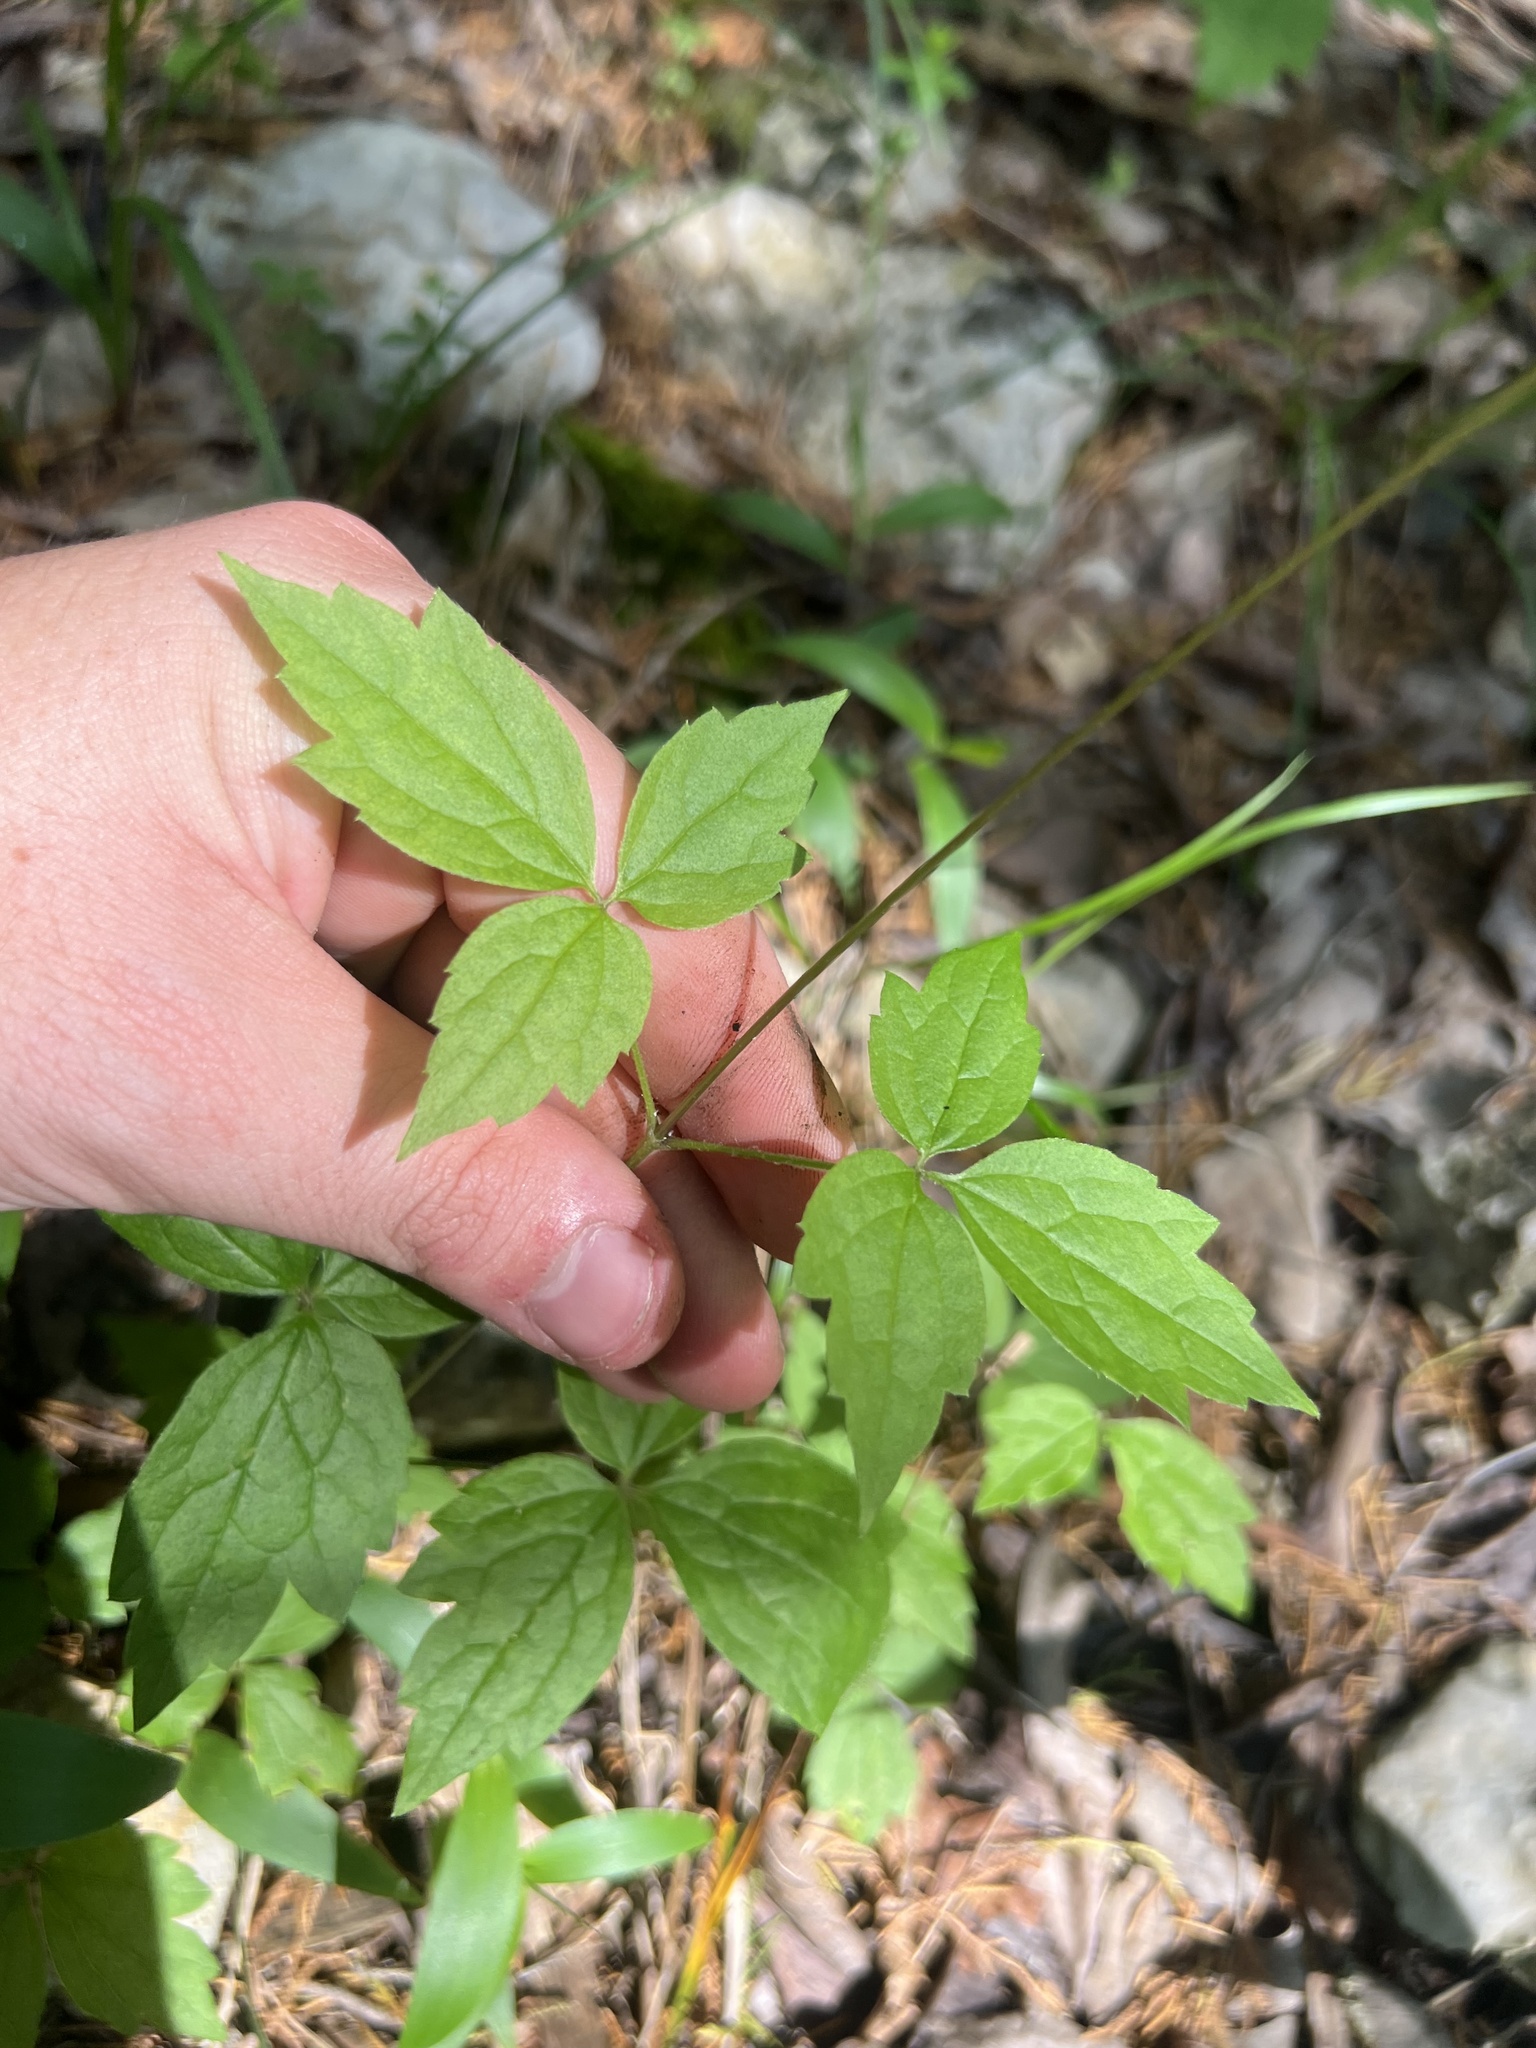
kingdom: Plantae
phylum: Tracheophyta
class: Magnoliopsida
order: Ranunculales
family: Ranunculaceae
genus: Clematis
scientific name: Clematis virginiana
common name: Virgin's-bower
